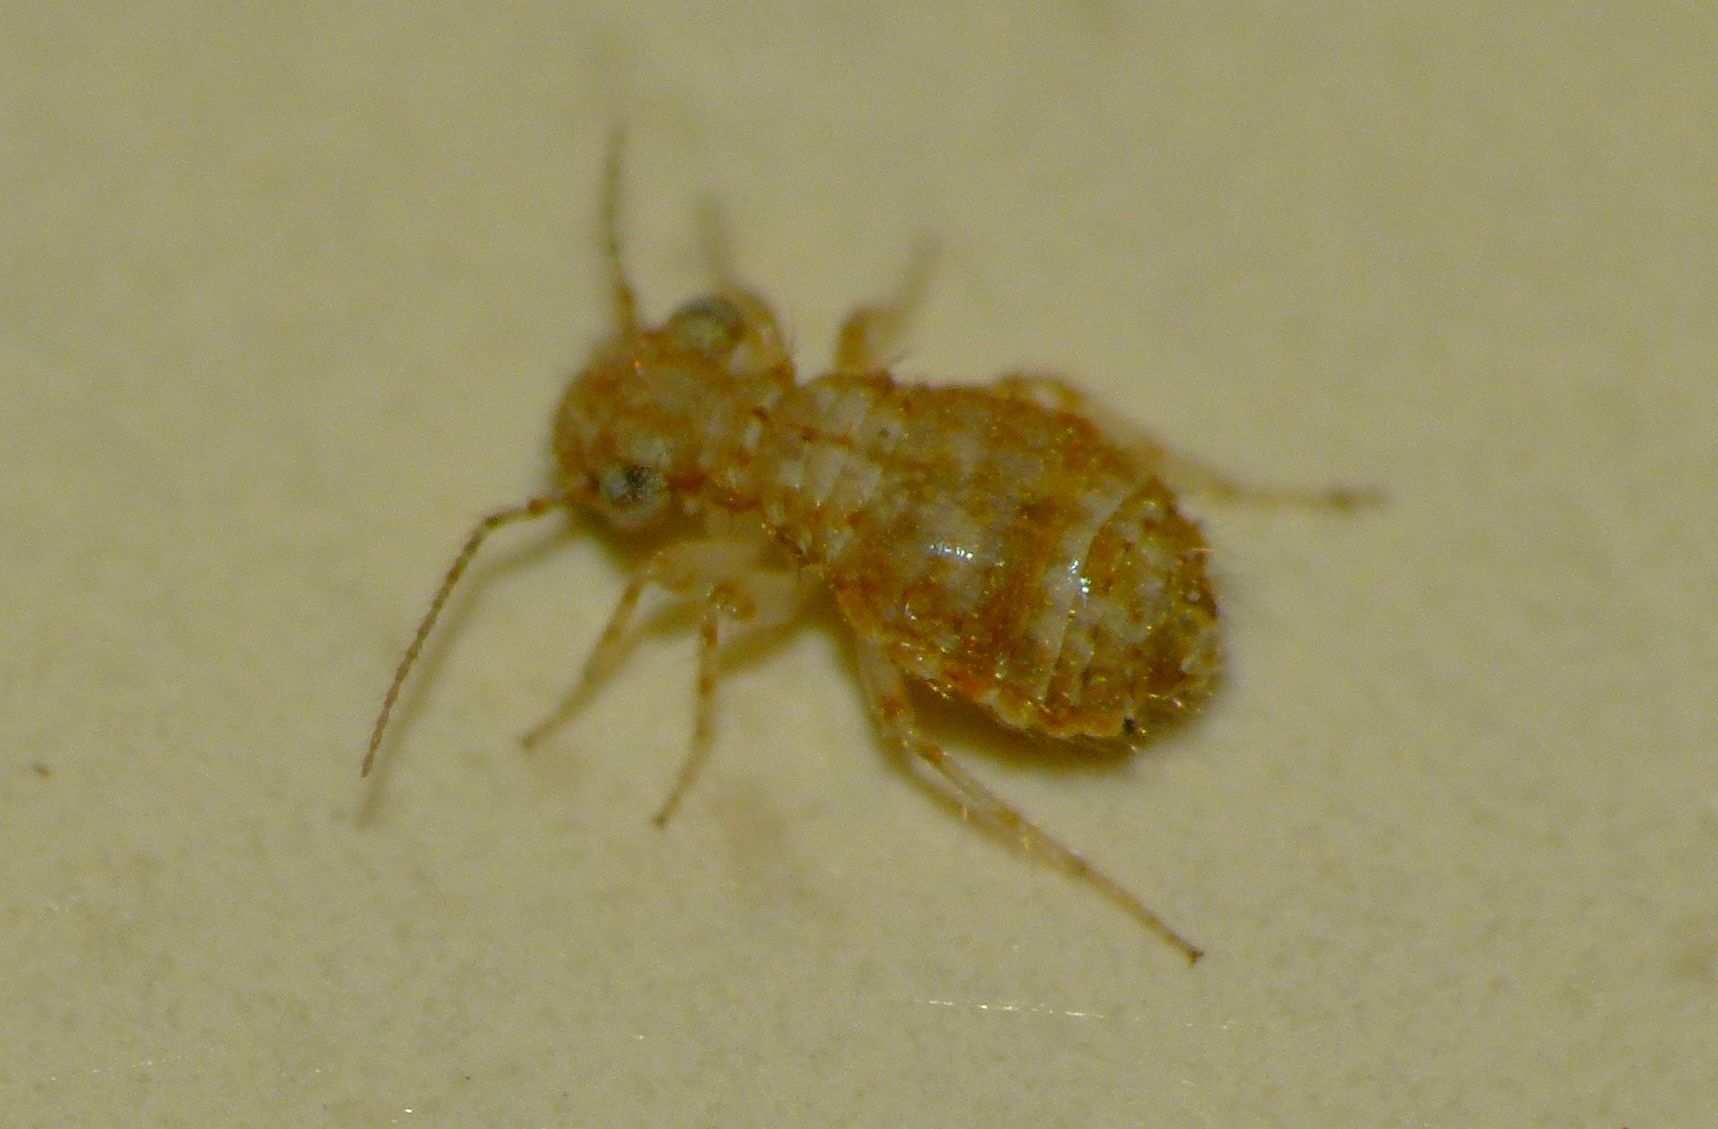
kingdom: Animalia
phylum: Arthropoda
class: Insecta
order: Psocodea
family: Trogiidae
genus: Cerobasis
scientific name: Cerobasis guestfalica
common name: Book lice
